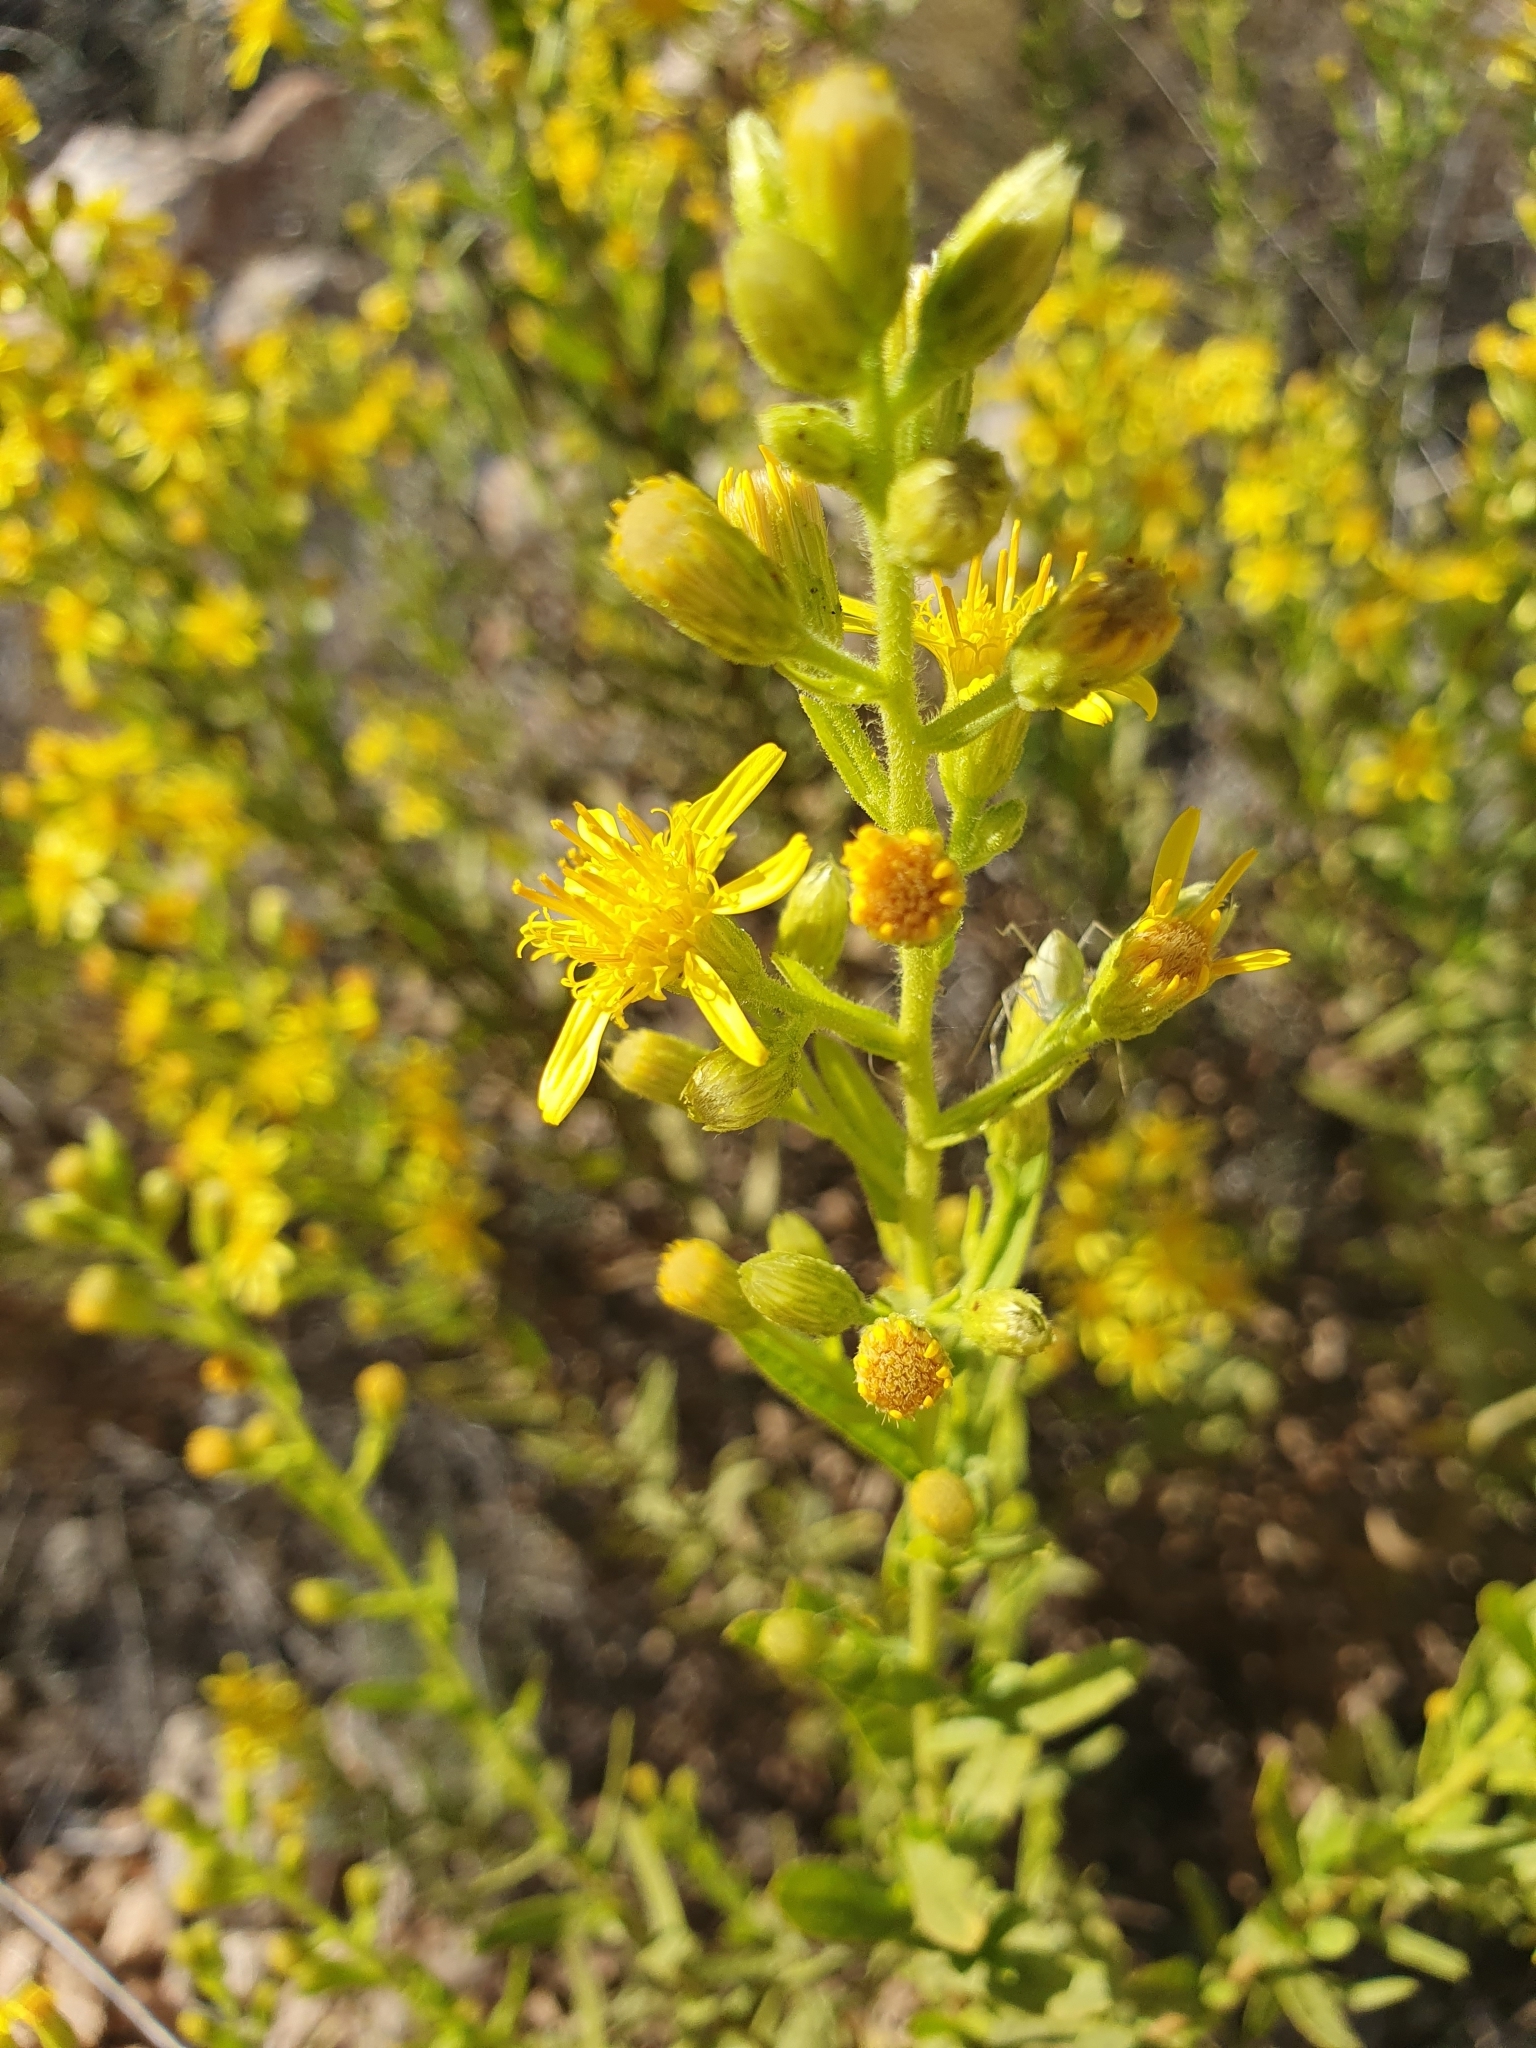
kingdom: Plantae
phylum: Tracheophyta
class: Magnoliopsida
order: Asterales
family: Asteraceae
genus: Dittrichia
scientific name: Dittrichia viscosa
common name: Woody fleabane
